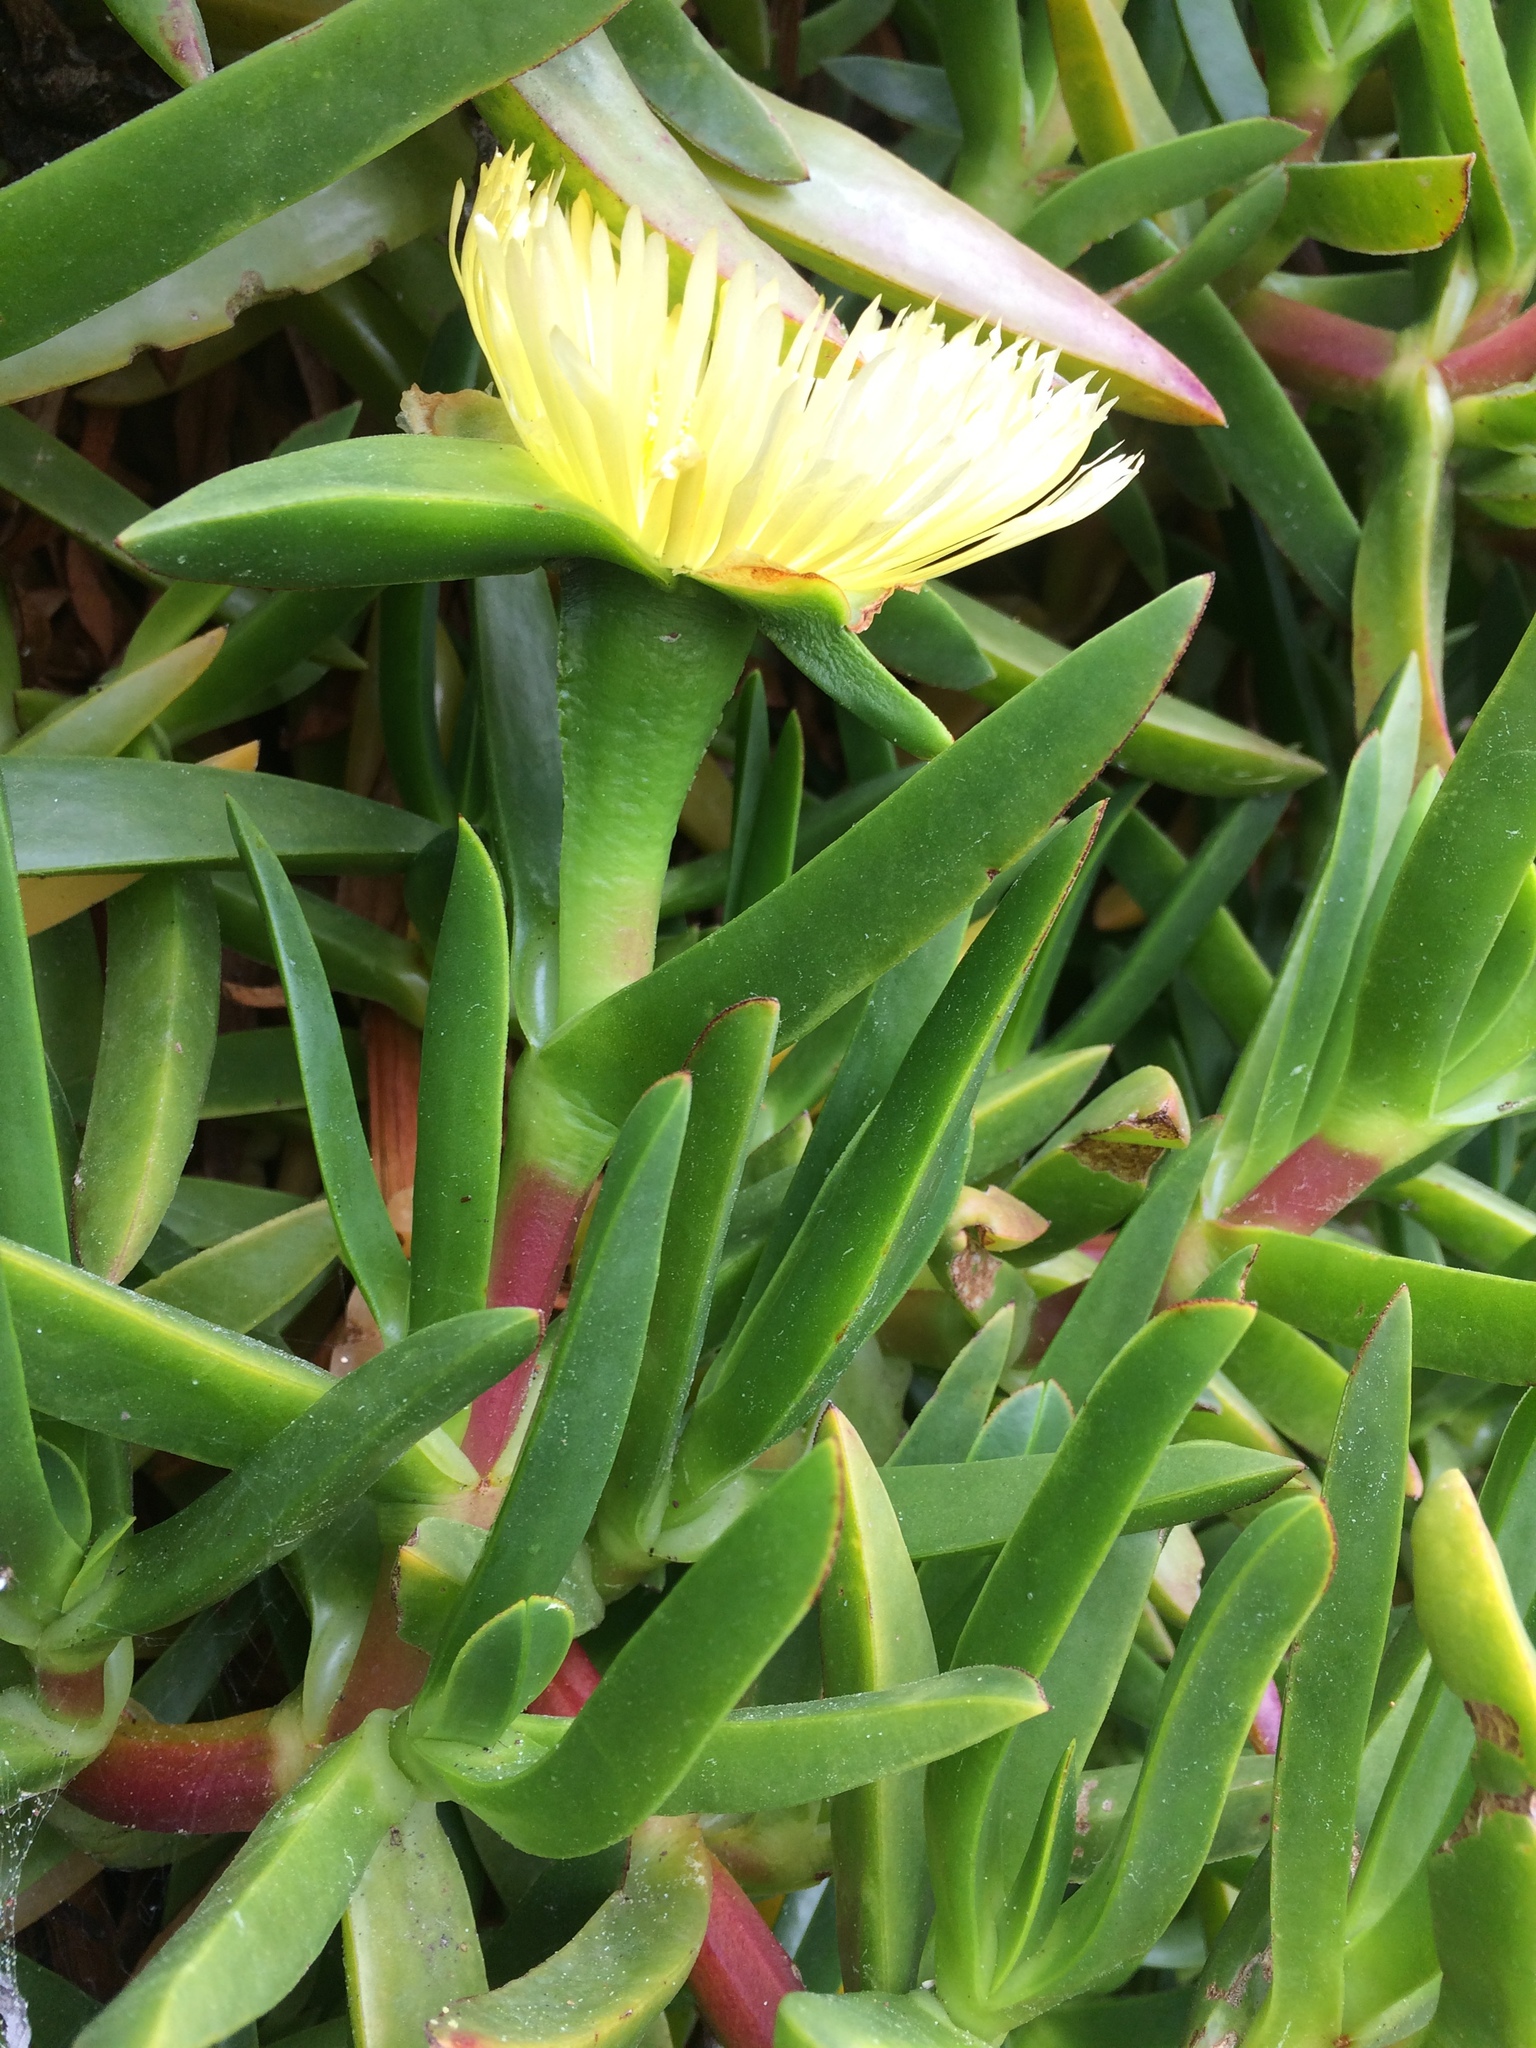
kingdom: Plantae
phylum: Tracheophyta
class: Magnoliopsida
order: Caryophyllales
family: Aizoaceae
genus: Carpobrotus
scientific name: Carpobrotus edulis
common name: Hottentot-fig
